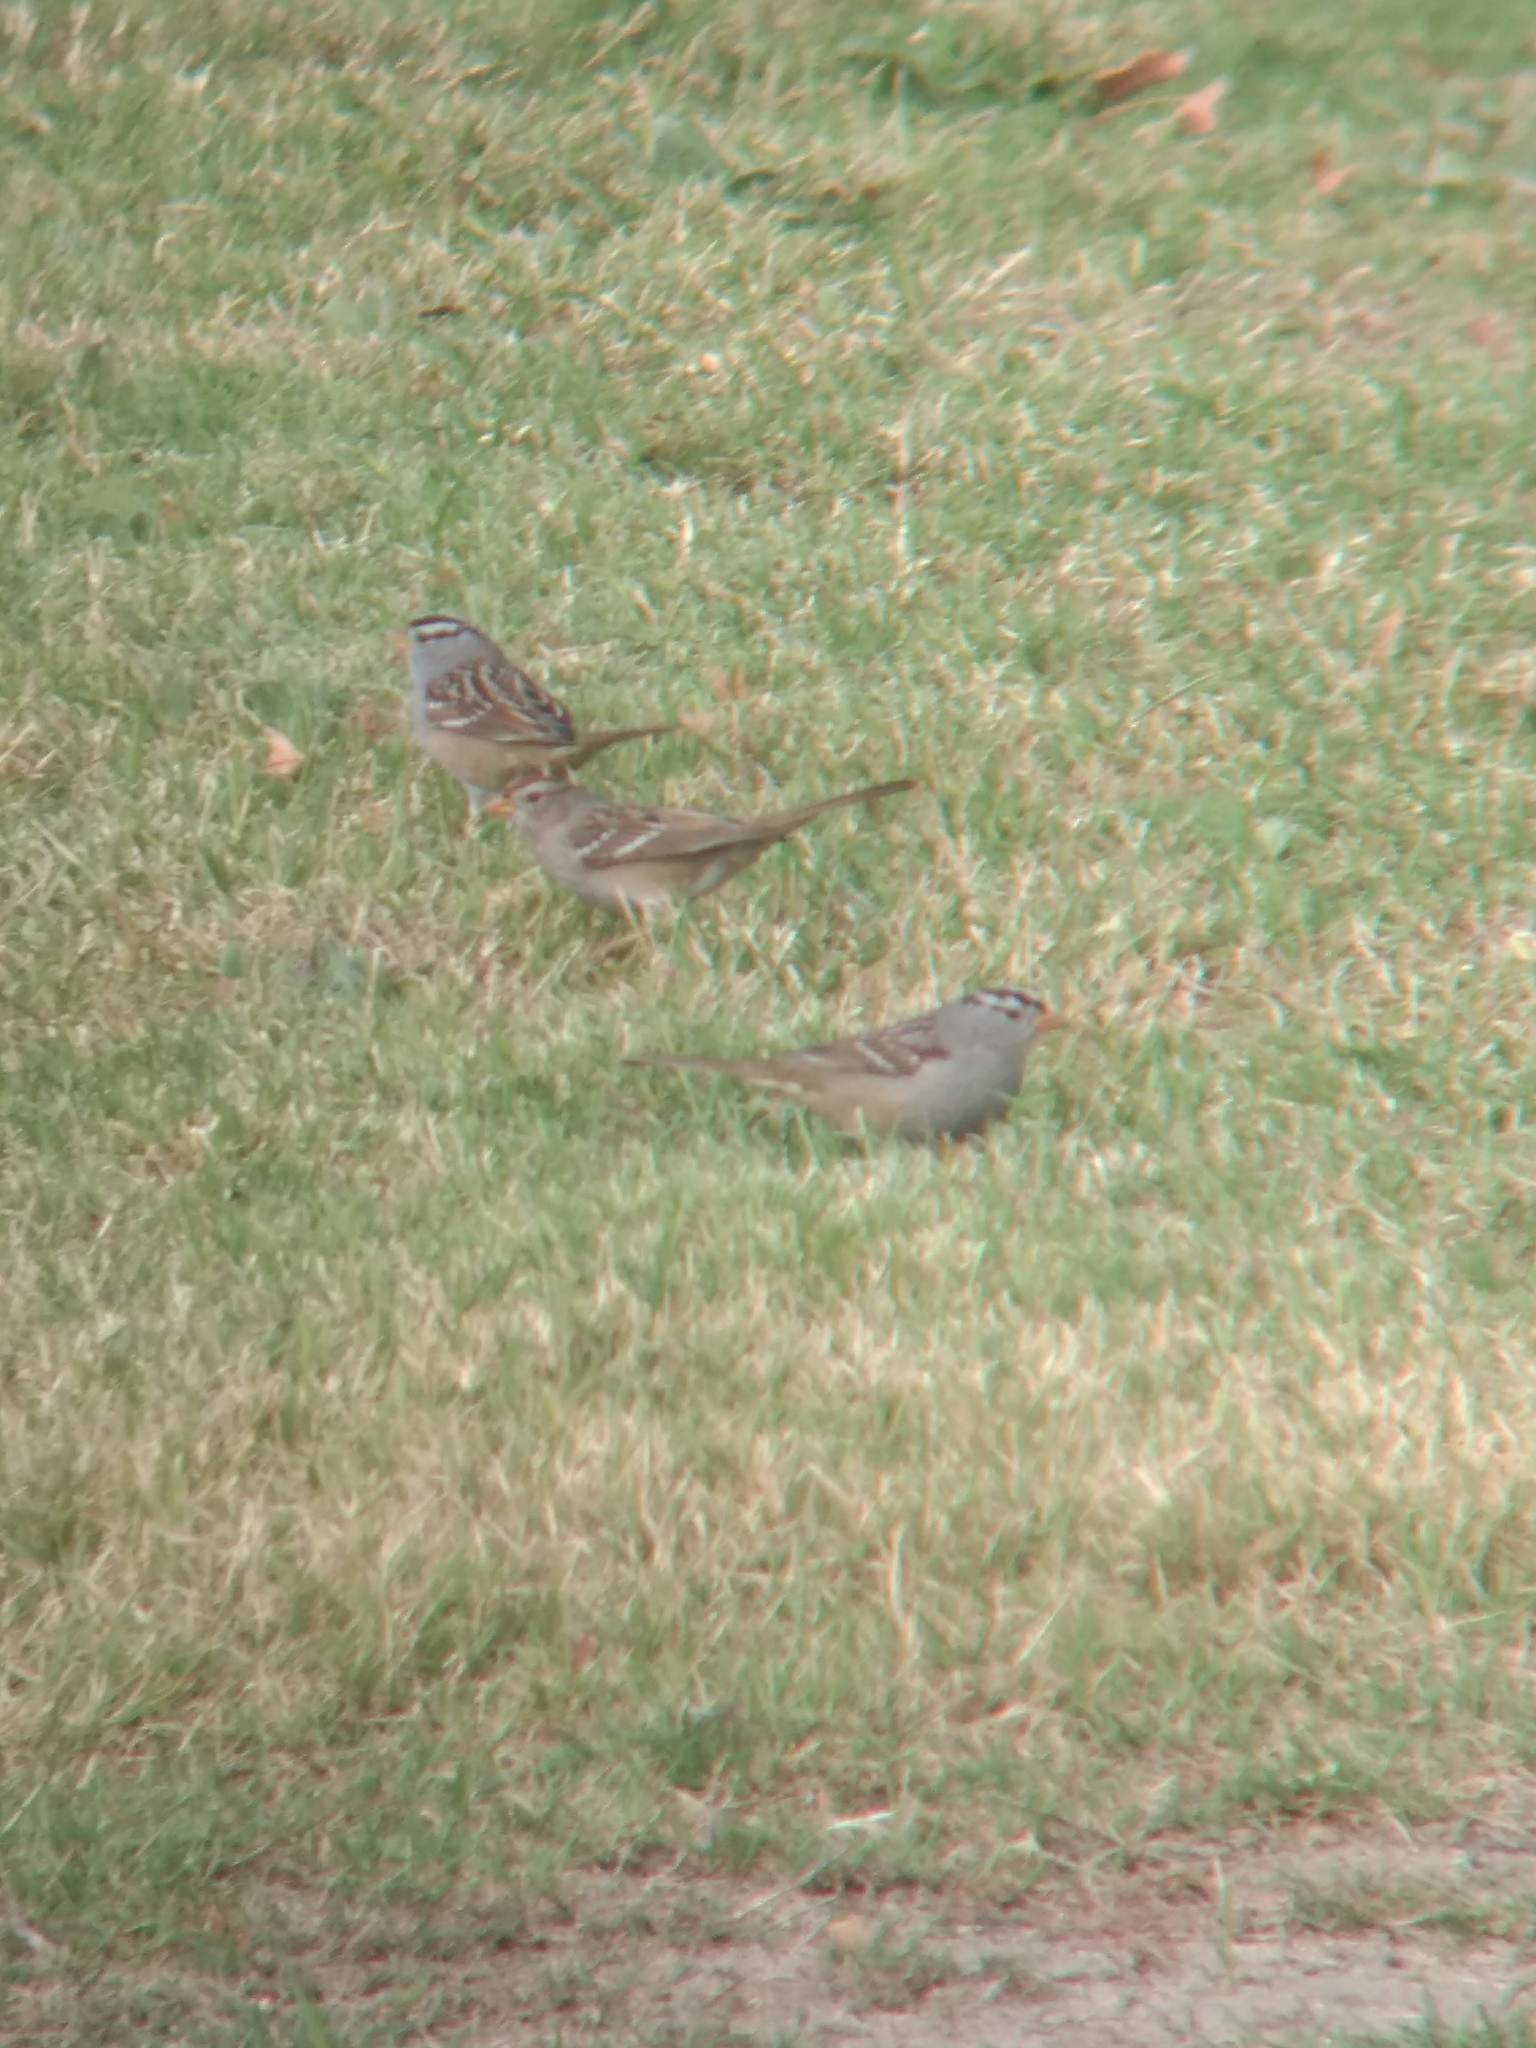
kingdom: Animalia
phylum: Chordata
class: Aves
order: Passeriformes
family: Passerellidae
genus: Zonotrichia
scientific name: Zonotrichia leucophrys
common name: White-crowned sparrow
